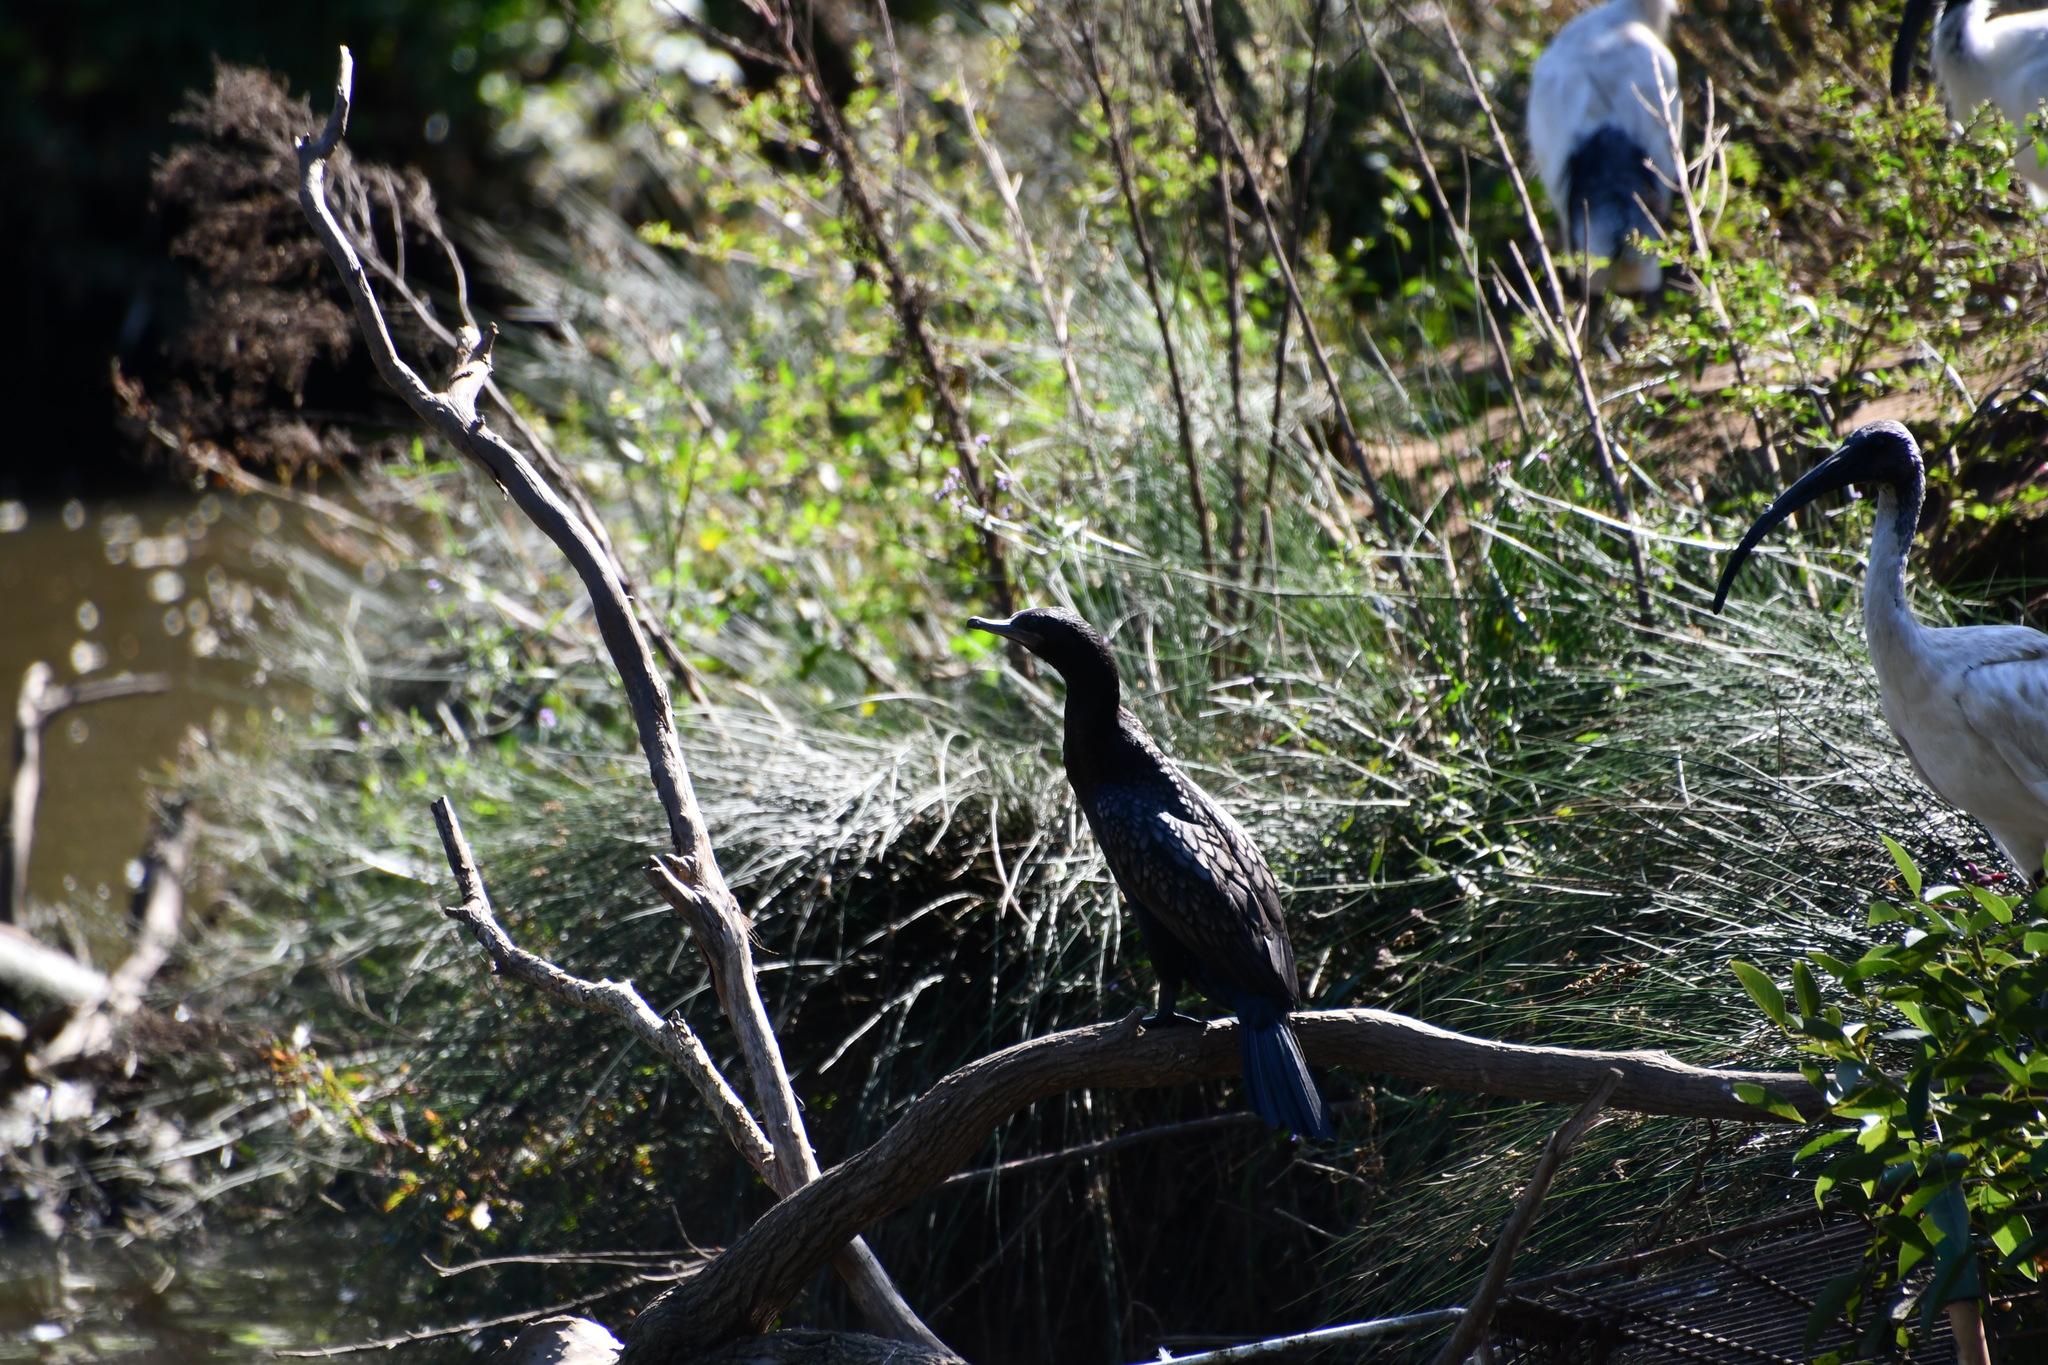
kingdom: Animalia
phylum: Chordata
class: Aves
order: Suliformes
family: Phalacrocoracidae
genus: Phalacrocorax
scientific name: Phalacrocorax sulcirostris
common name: Little black cormorant
